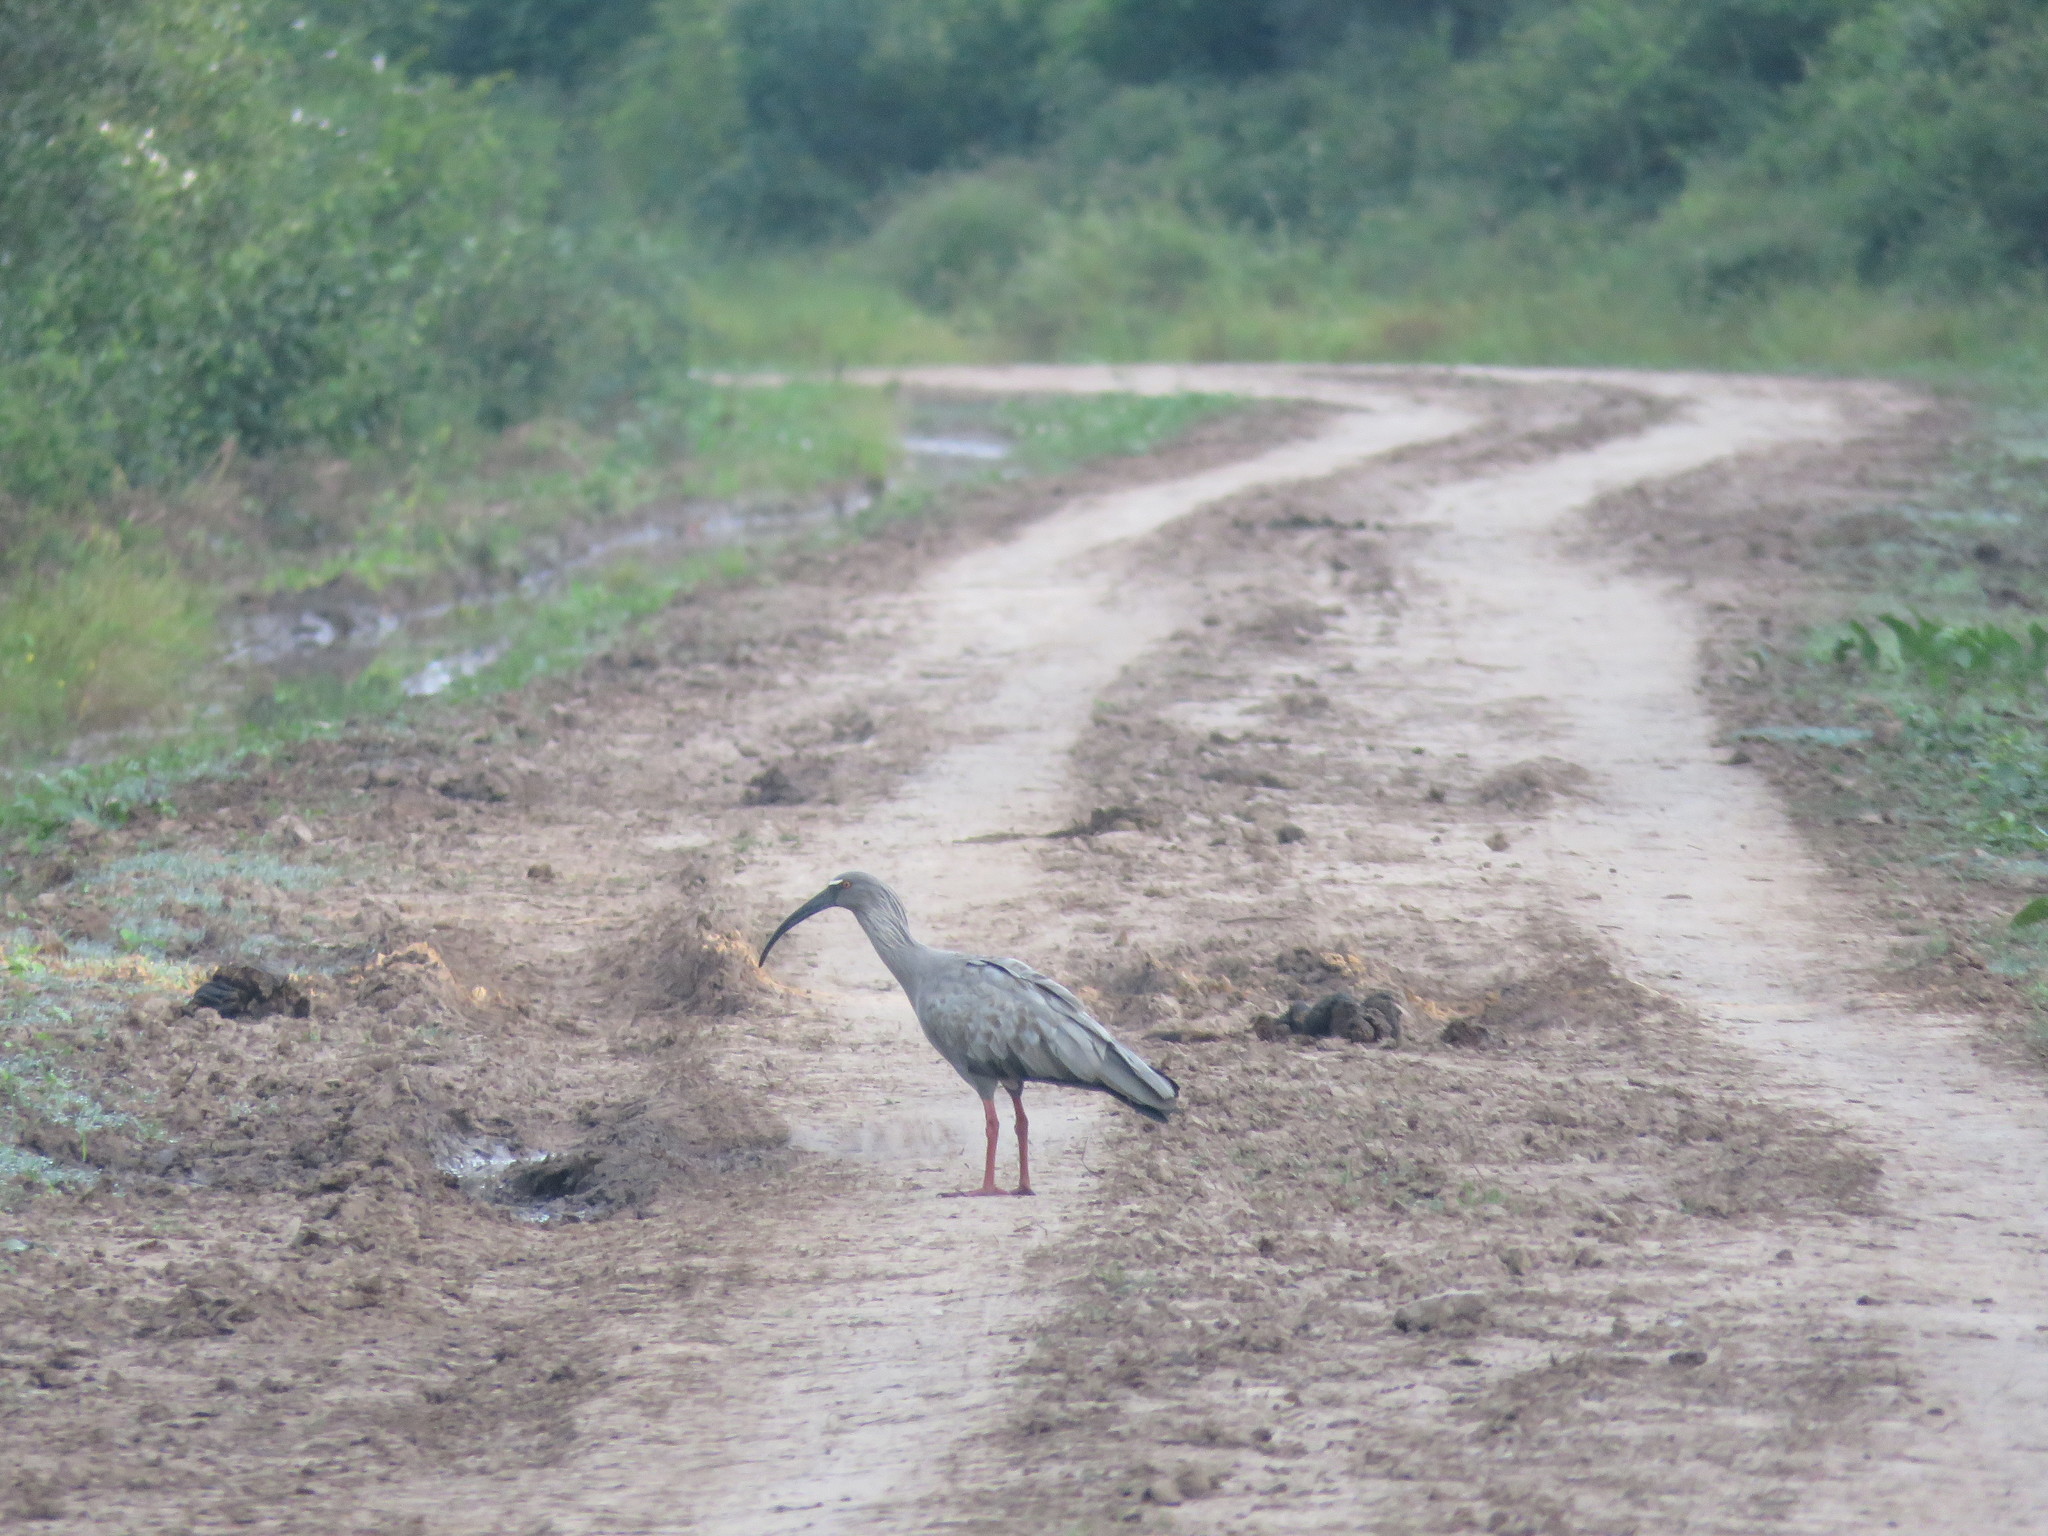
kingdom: Animalia
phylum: Chordata
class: Aves
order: Pelecaniformes
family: Threskiornithidae
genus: Theristicus
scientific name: Theristicus caerulescens
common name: Plumbeous ibis
